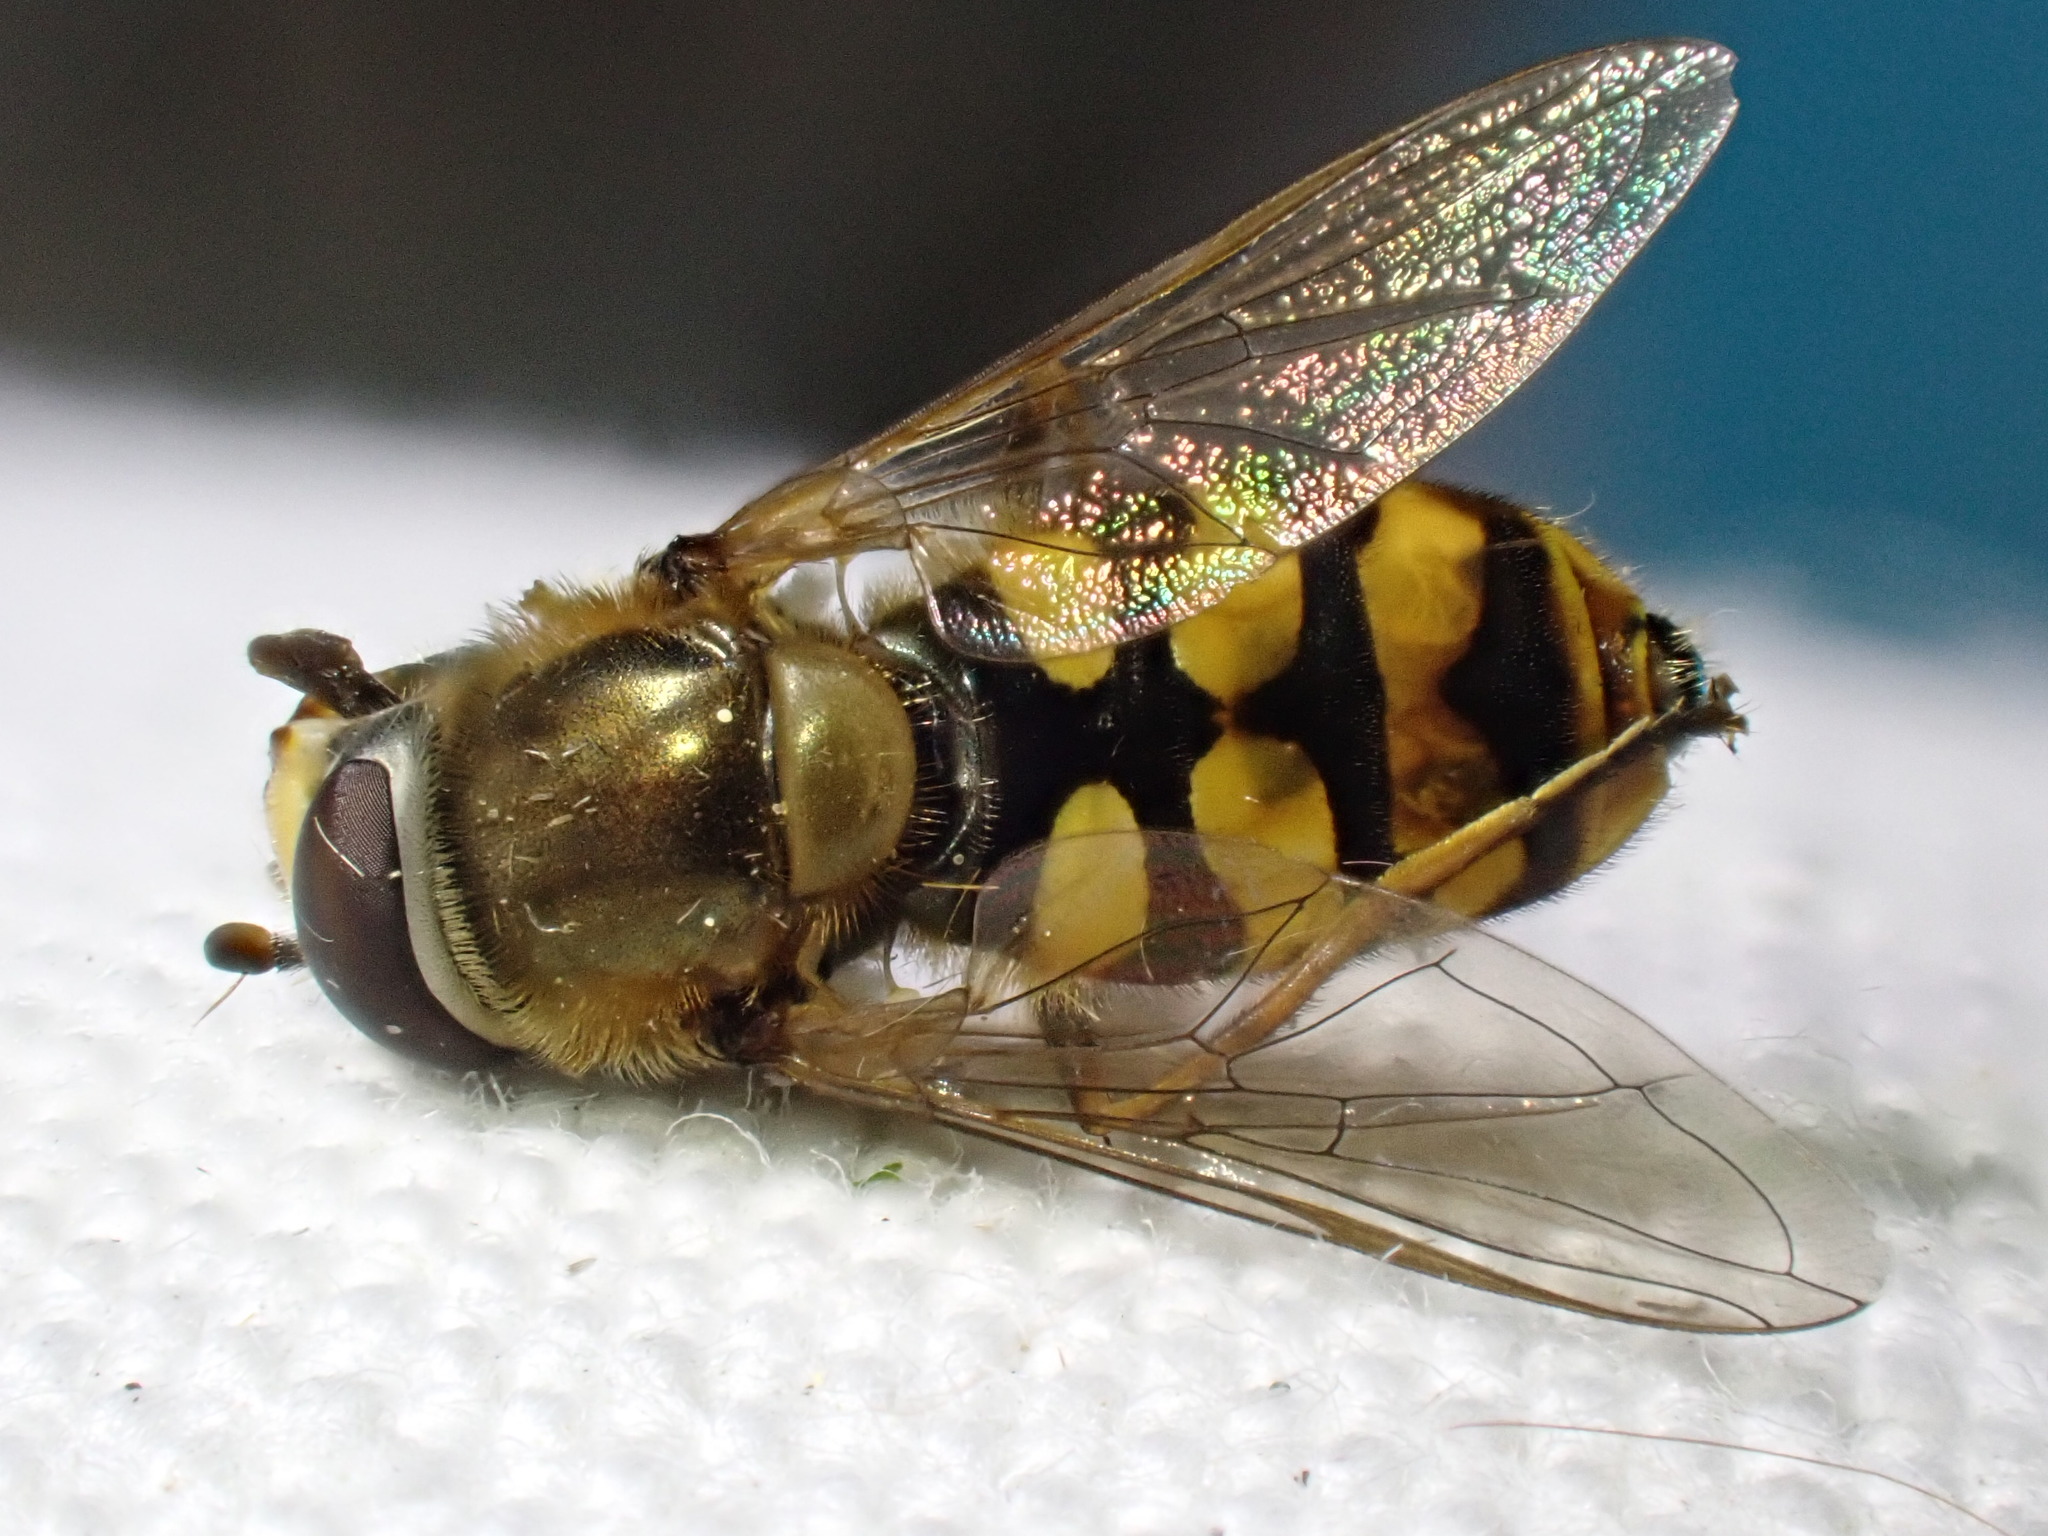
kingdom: Animalia
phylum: Arthropoda
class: Insecta
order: Diptera
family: Syrphidae
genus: Eupeodes
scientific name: Eupeodes corollae
